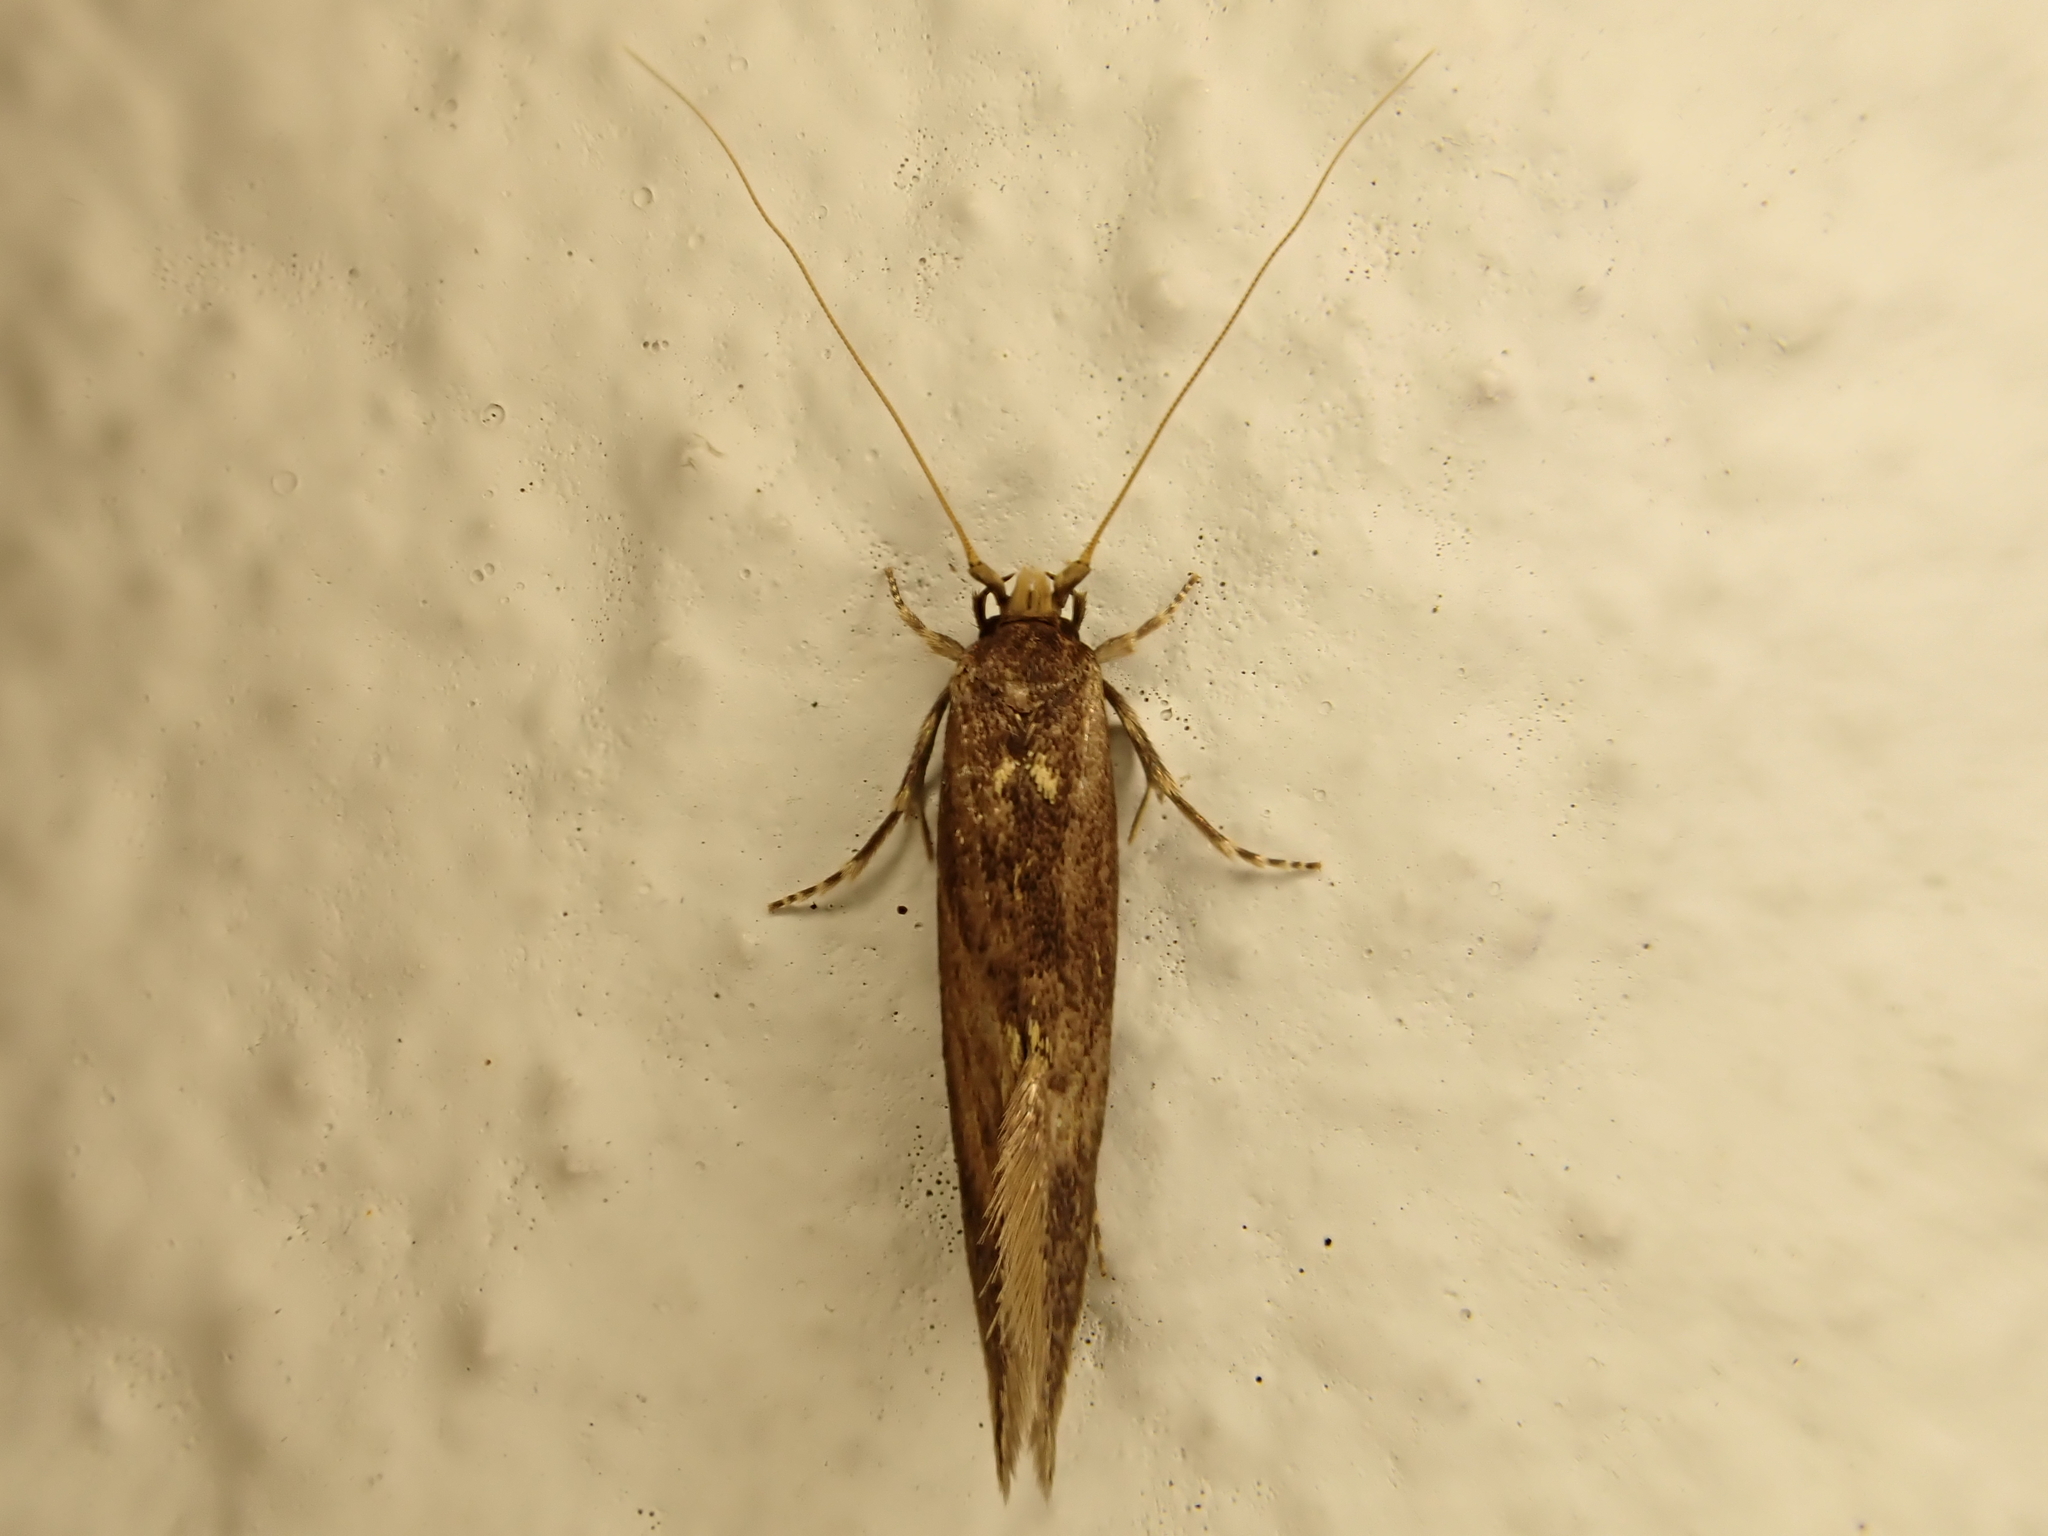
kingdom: Animalia
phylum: Arthropoda
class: Insecta
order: Lepidoptera
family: Tineidae
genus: Opogona
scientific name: Opogona omoscopa
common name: Moth
